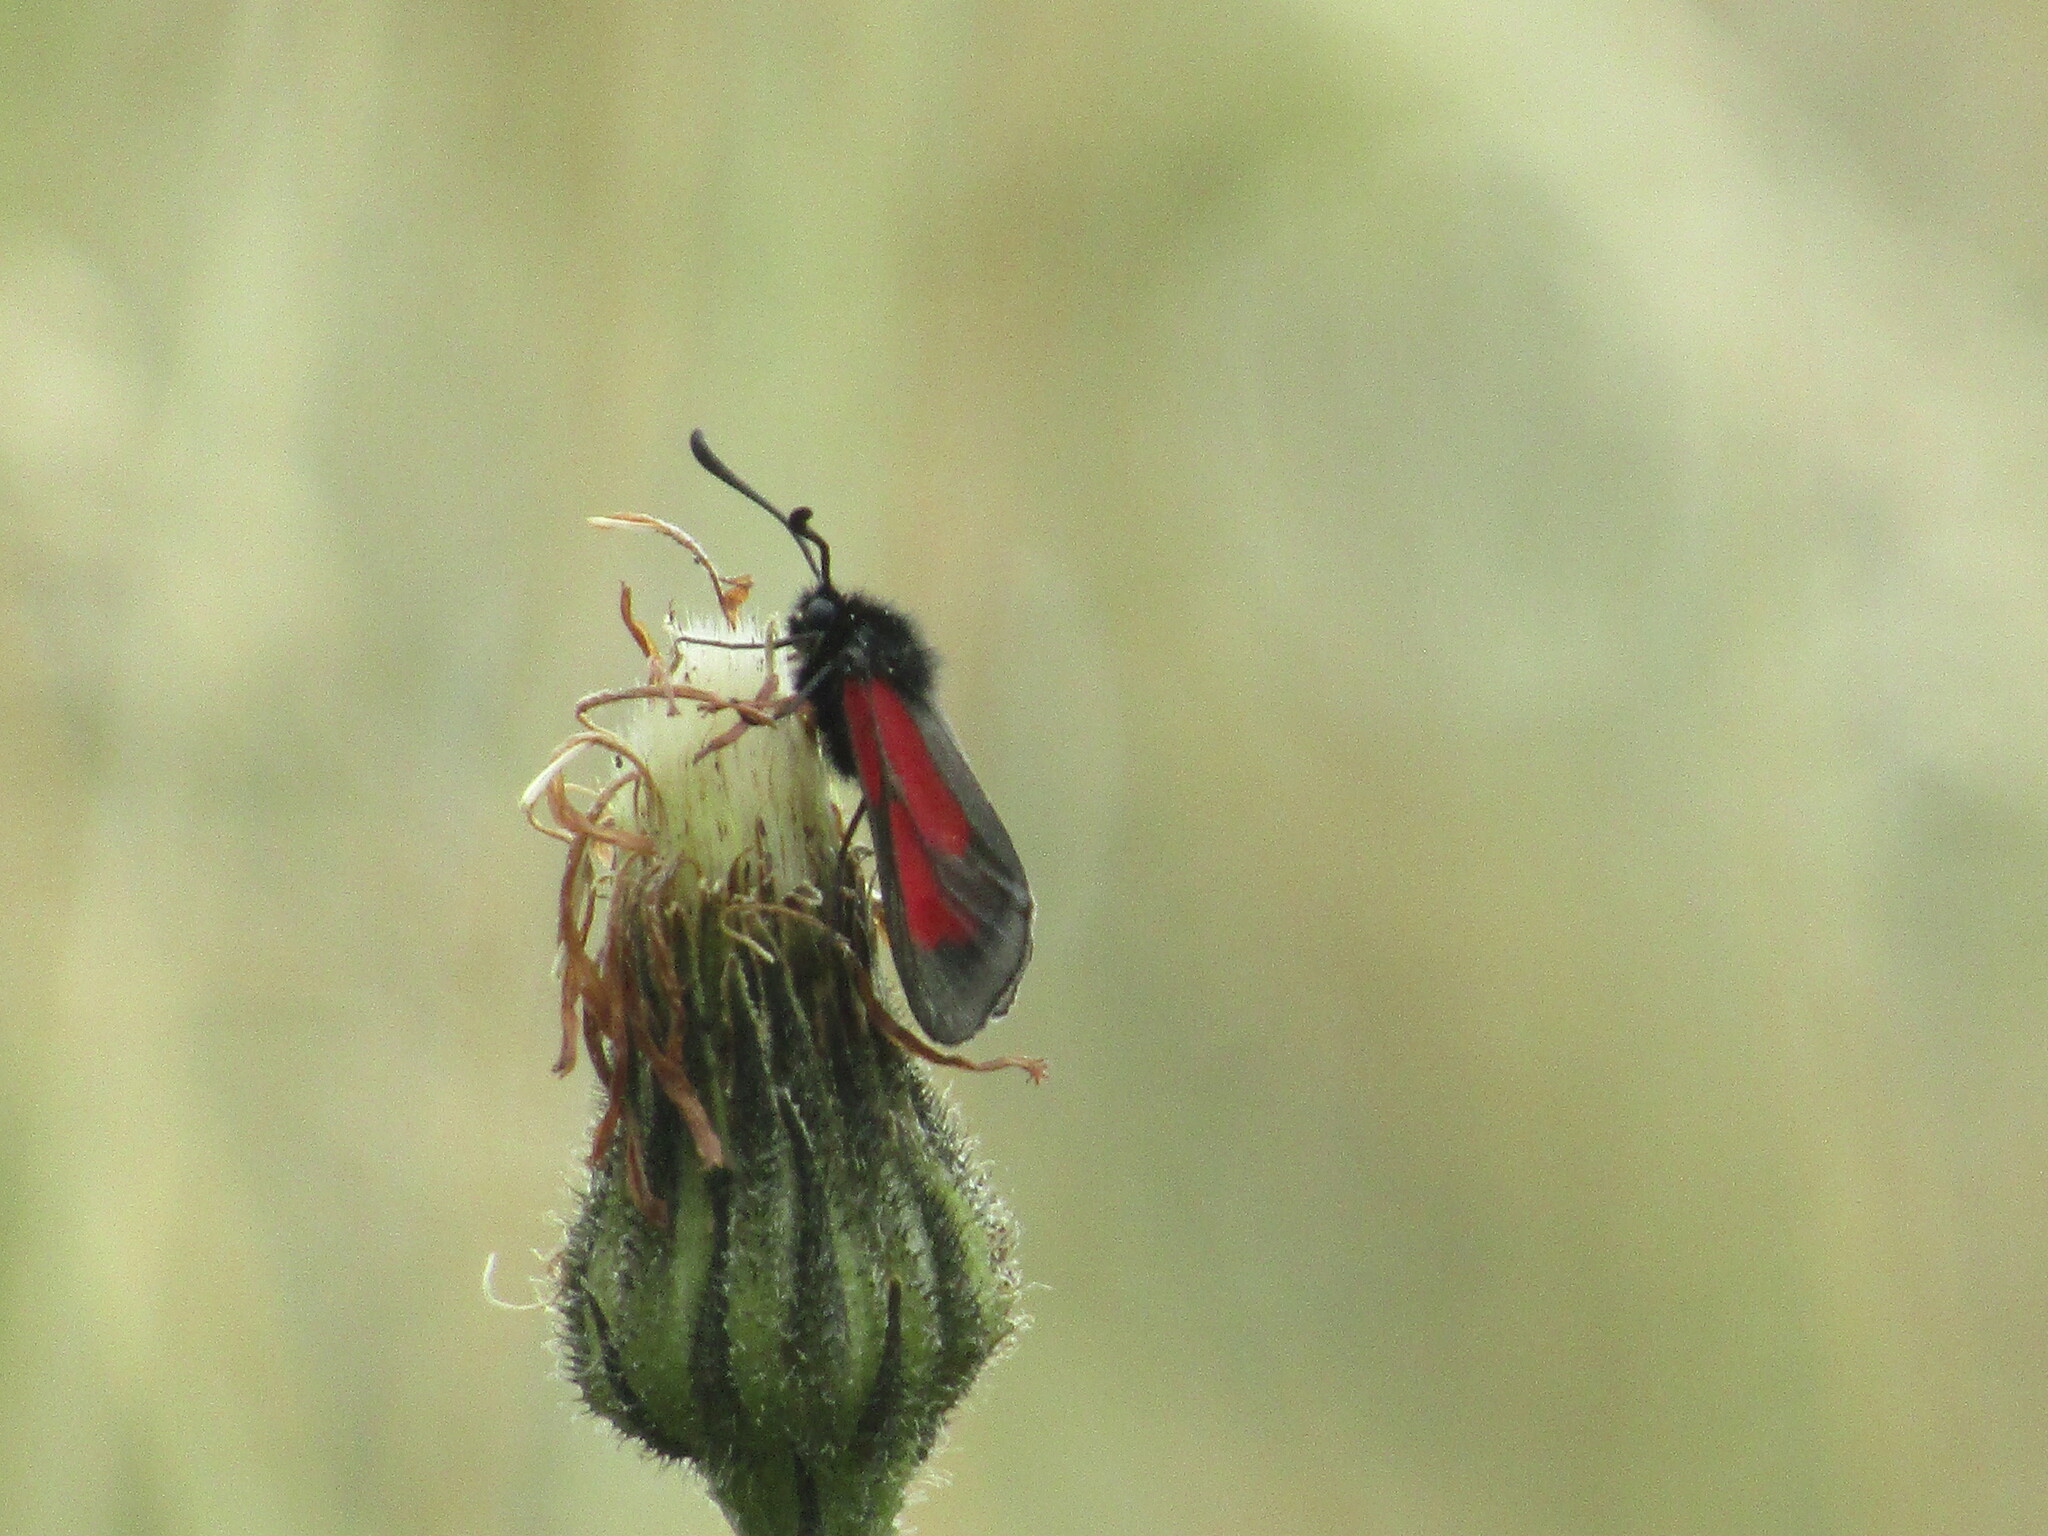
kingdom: Animalia
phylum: Arthropoda
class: Insecta
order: Lepidoptera
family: Zygaenidae
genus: Zygaena
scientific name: Zygaena
